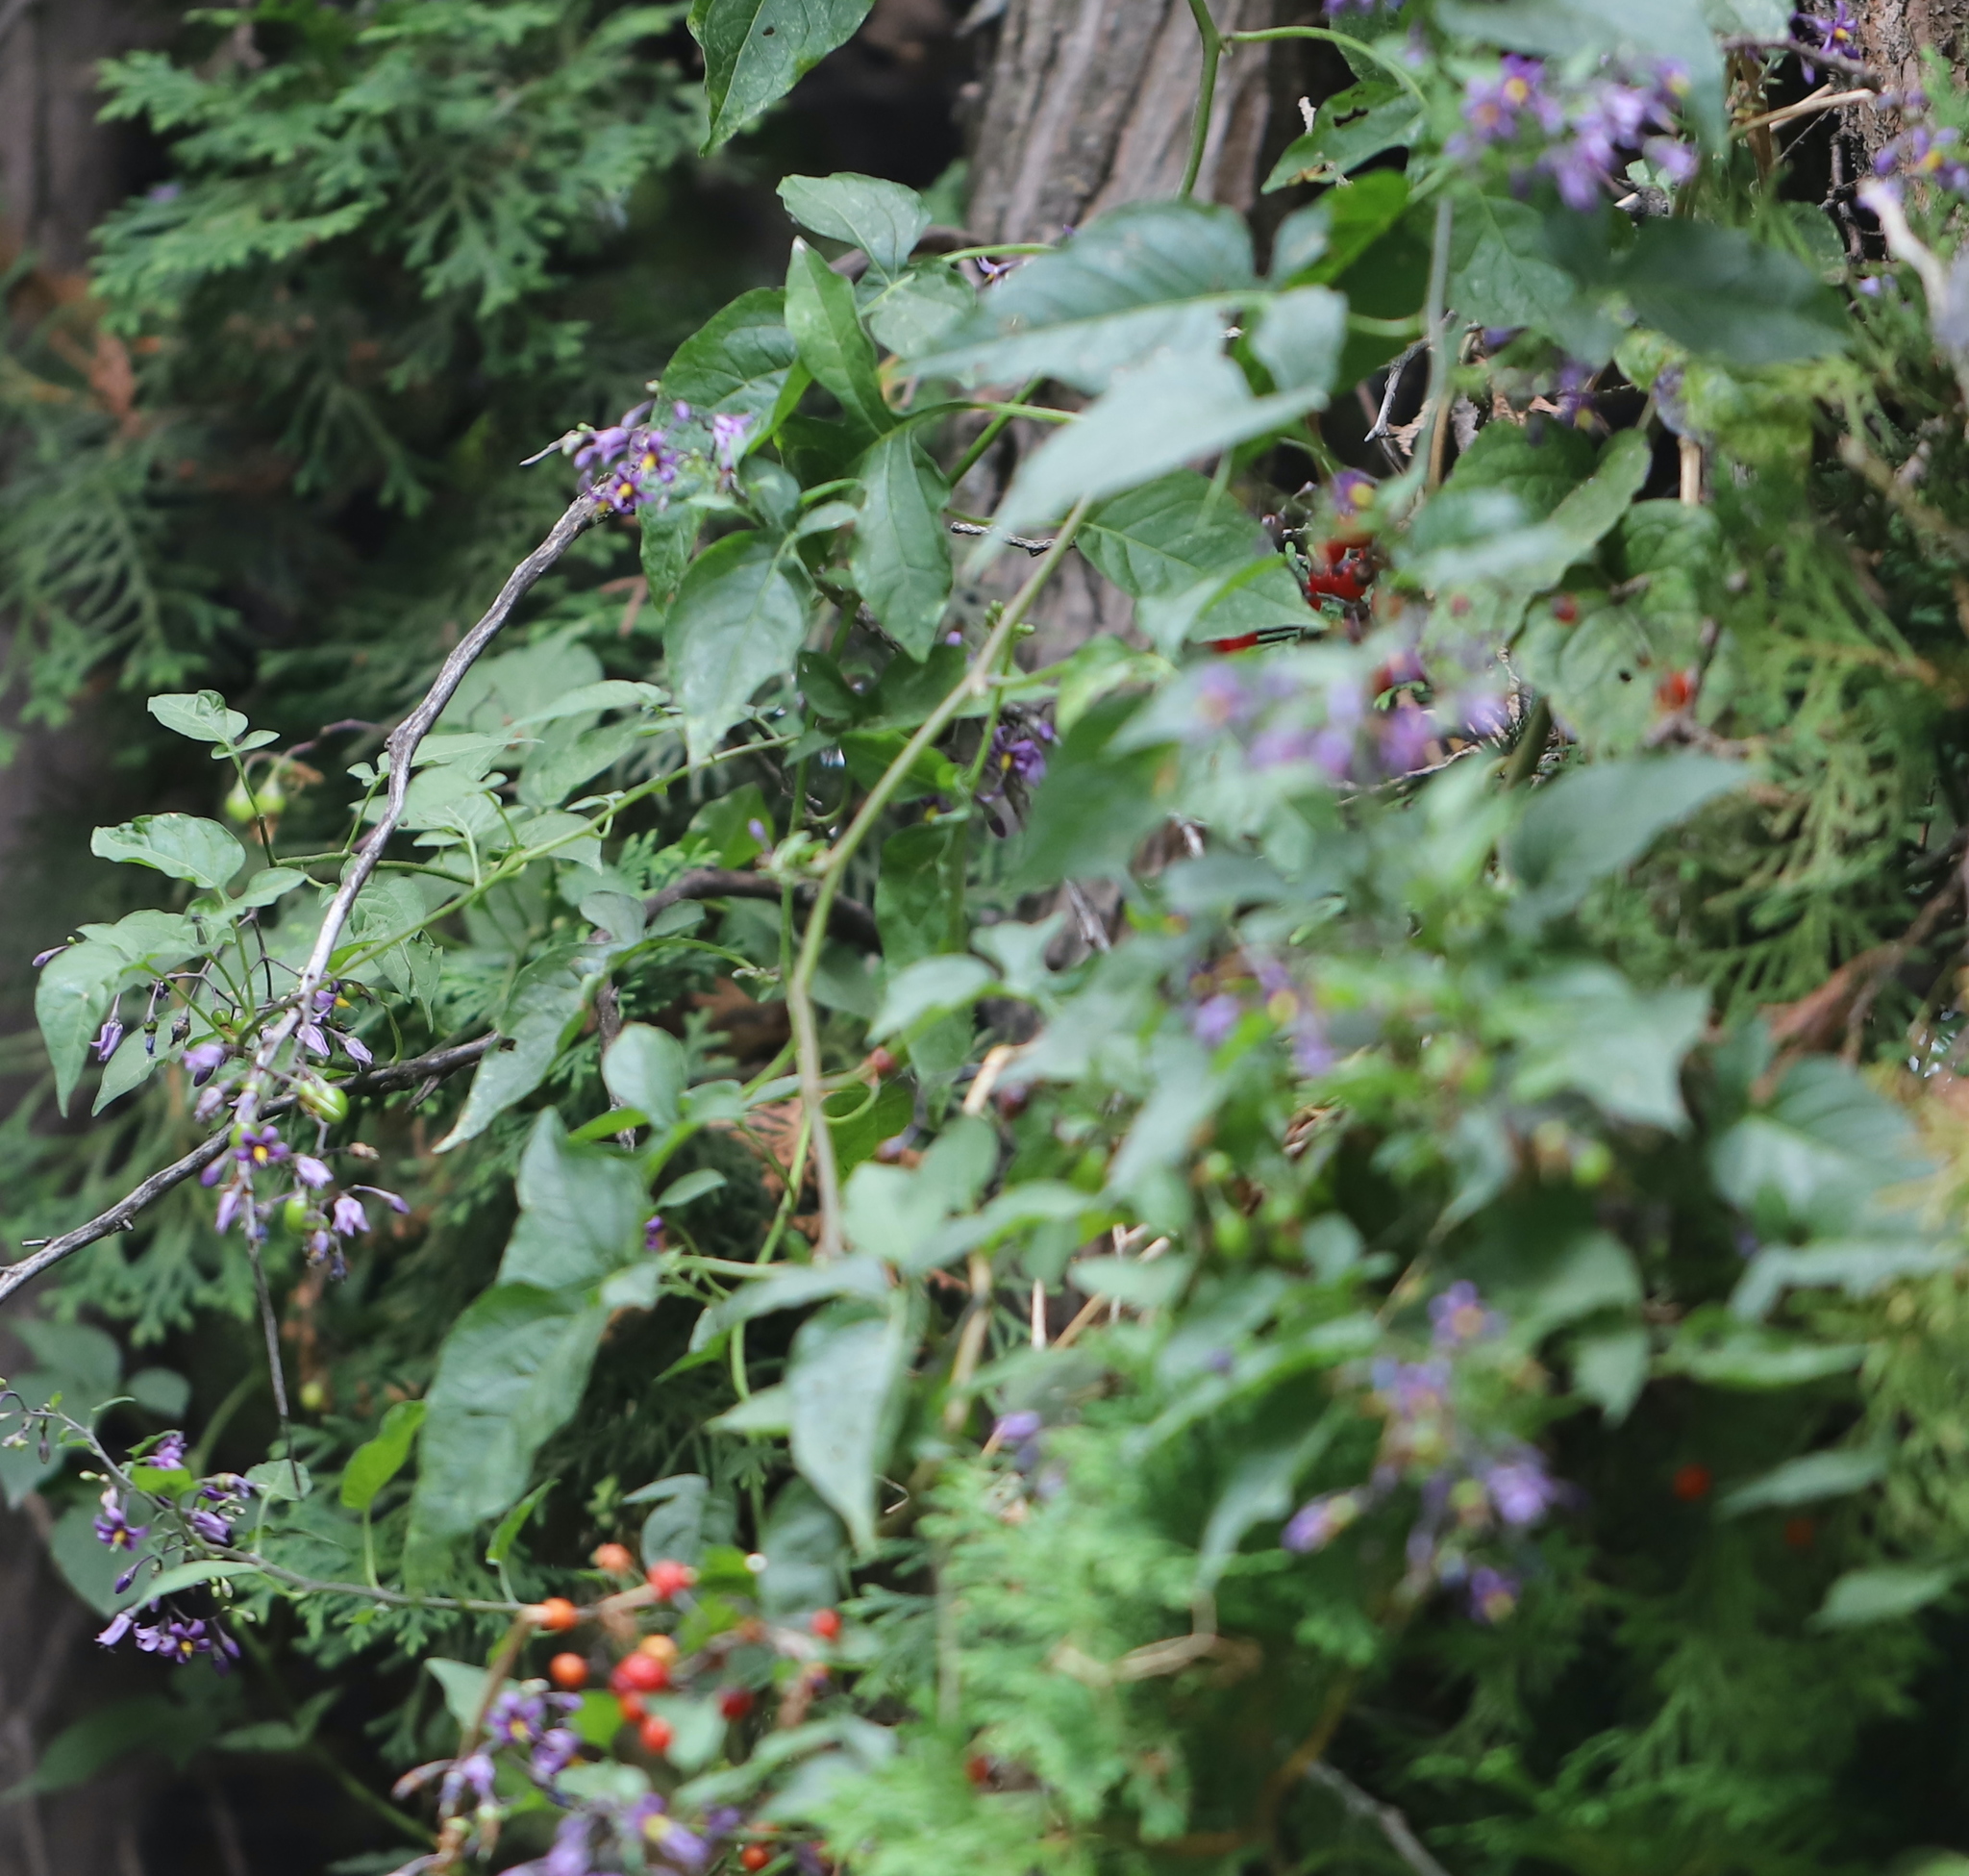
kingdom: Plantae
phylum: Tracheophyta
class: Magnoliopsida
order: Solanales
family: Solanaceae
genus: Solanum
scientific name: Solanum dulcamara
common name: Climbing nightshade
